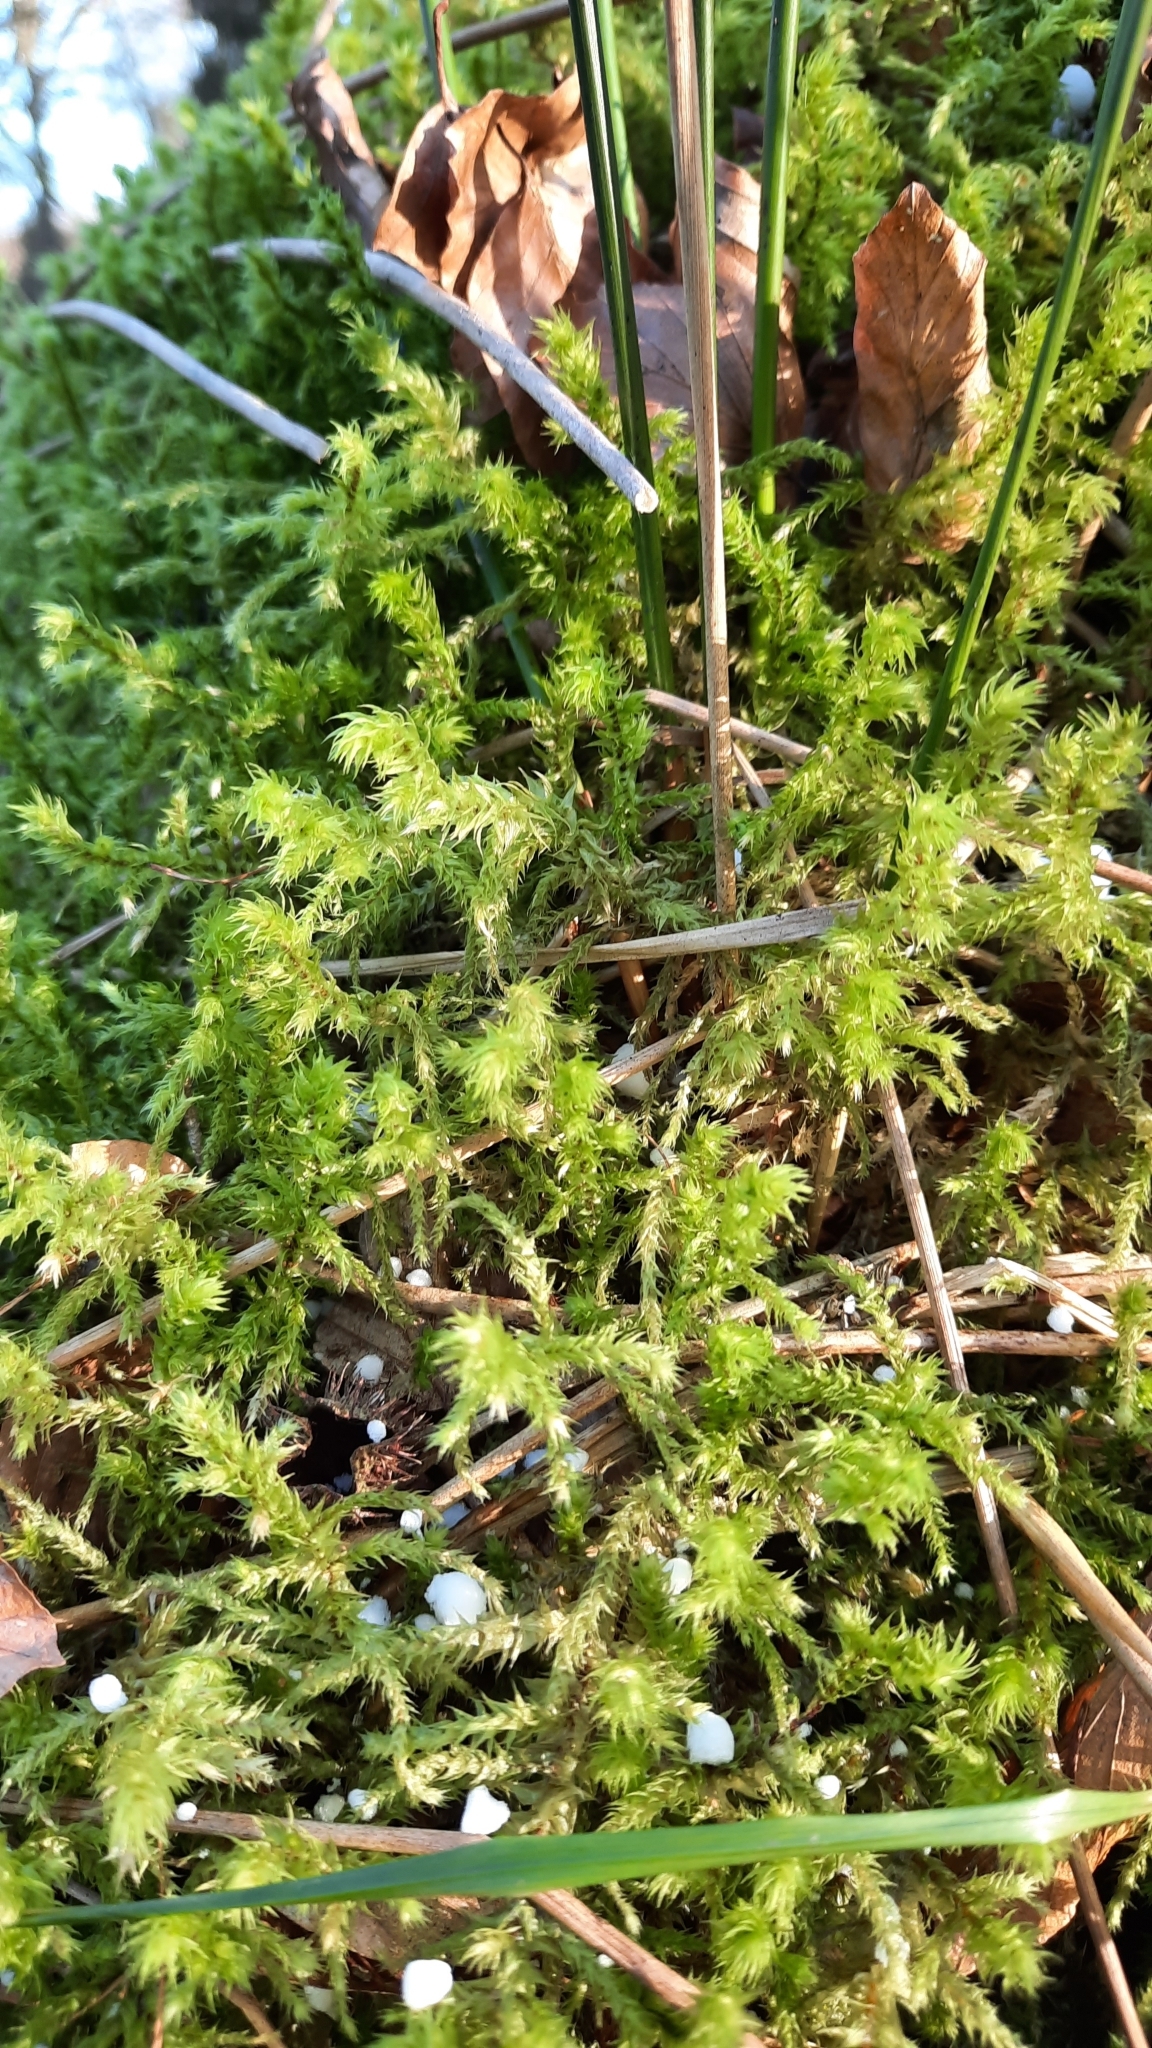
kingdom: Plantae
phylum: Bryophyta
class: Bryopsida
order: Hypnales
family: Hylocomiaceae
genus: Hylocomiadelphus
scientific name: Hylocomiadelphus triquetrus
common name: Rough goose neck moss
